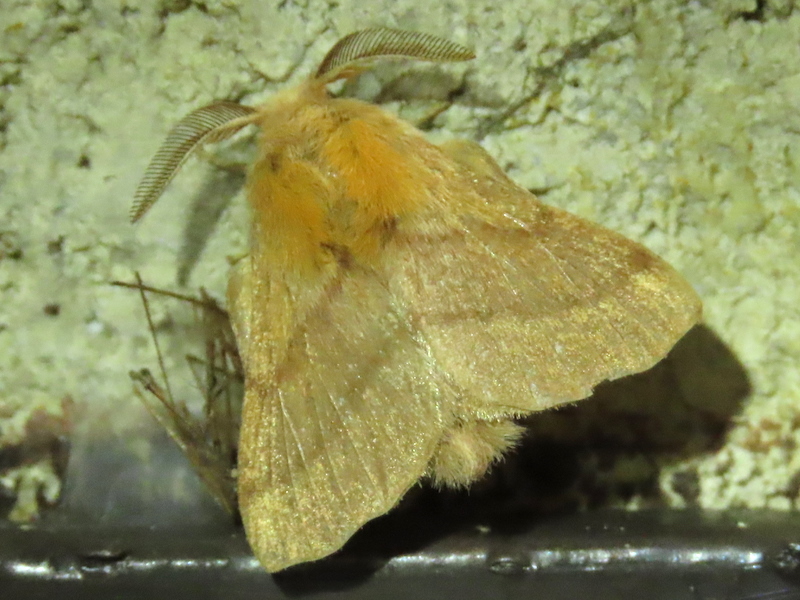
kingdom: Animalia
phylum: Arthropoda
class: Insecta
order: Lepidoptera
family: Lasiocampidae
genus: Malacosoma
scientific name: Malacosoma disstria
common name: Forest tent caterpillar
